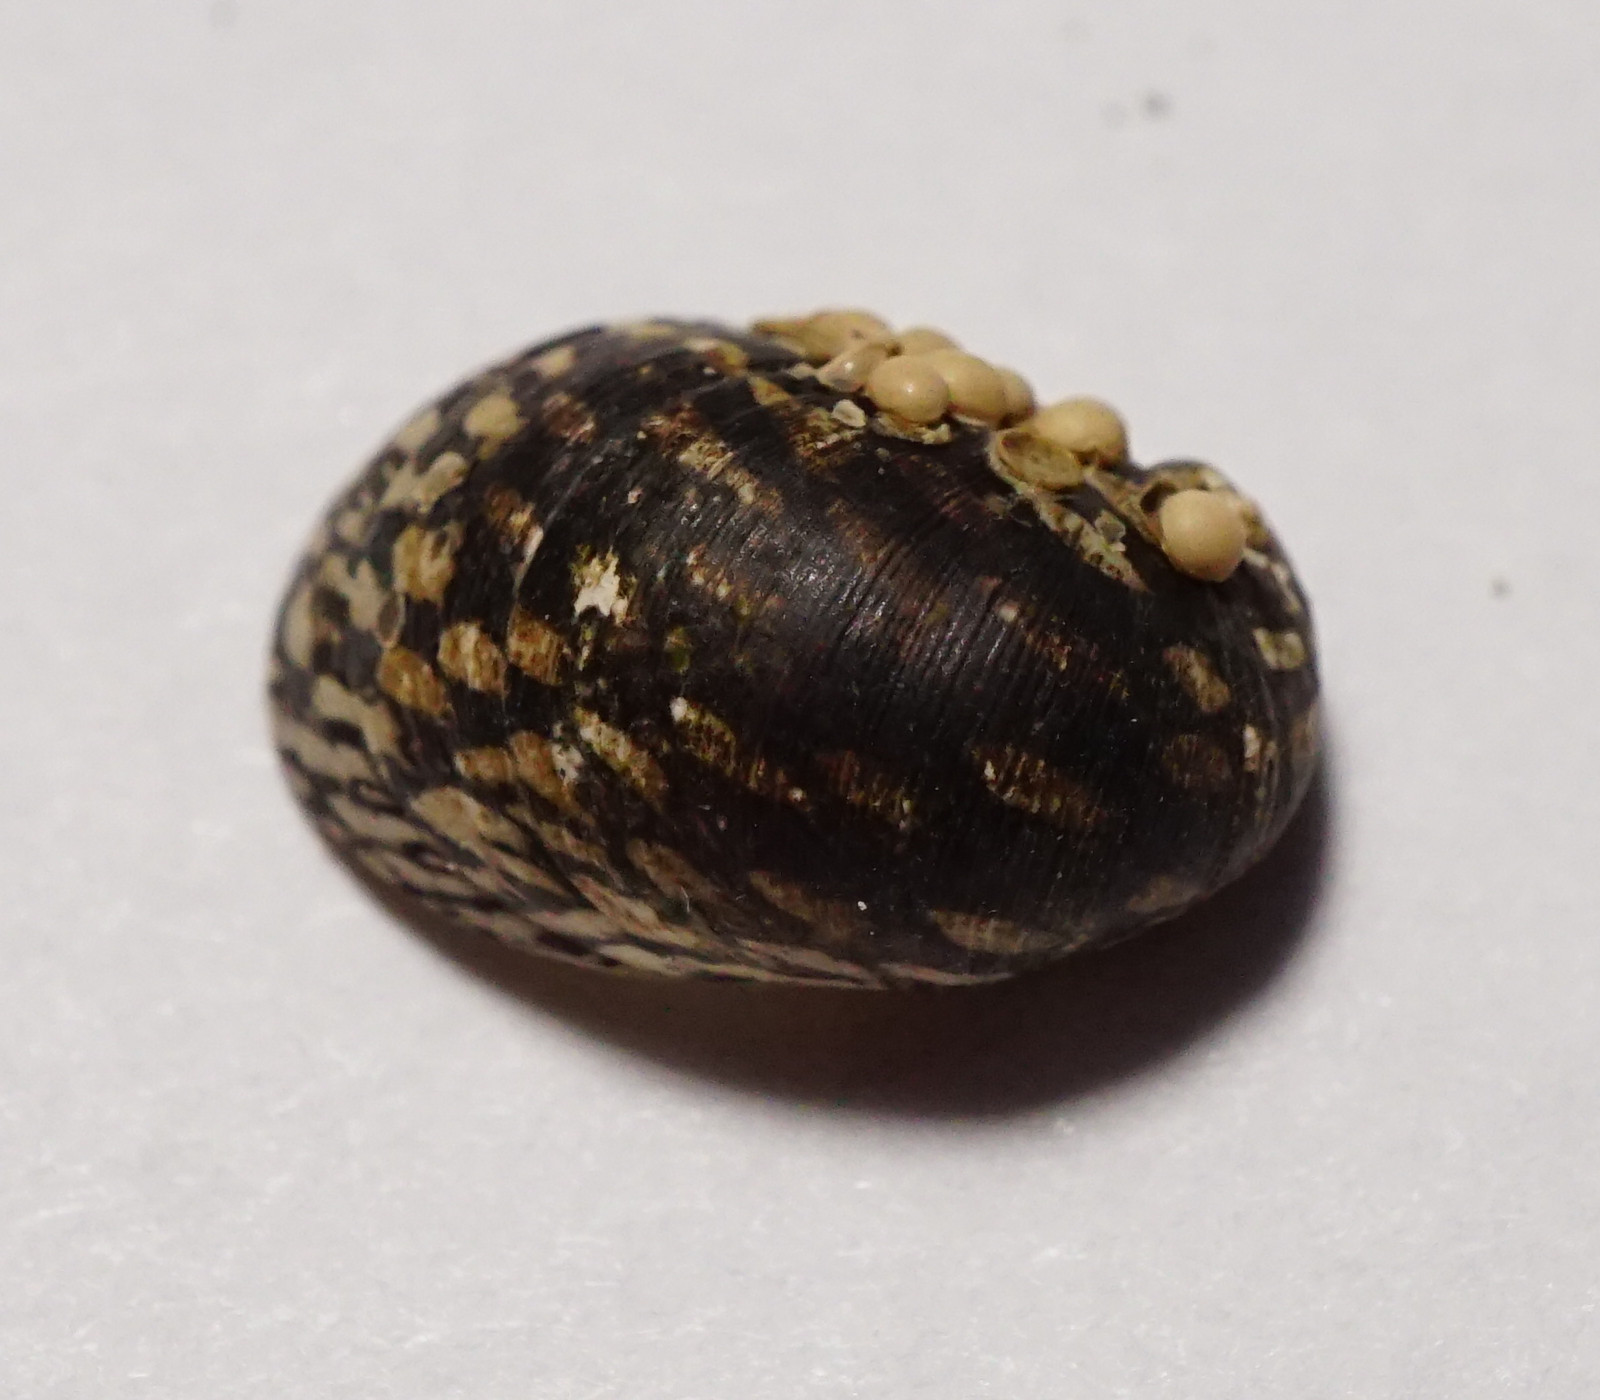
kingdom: Animalia
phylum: Mollusca
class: Gastropoda
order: Cycloneritida
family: Neritidae
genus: Theodoxus
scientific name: Theodoxus fluviatilis
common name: River nerite
